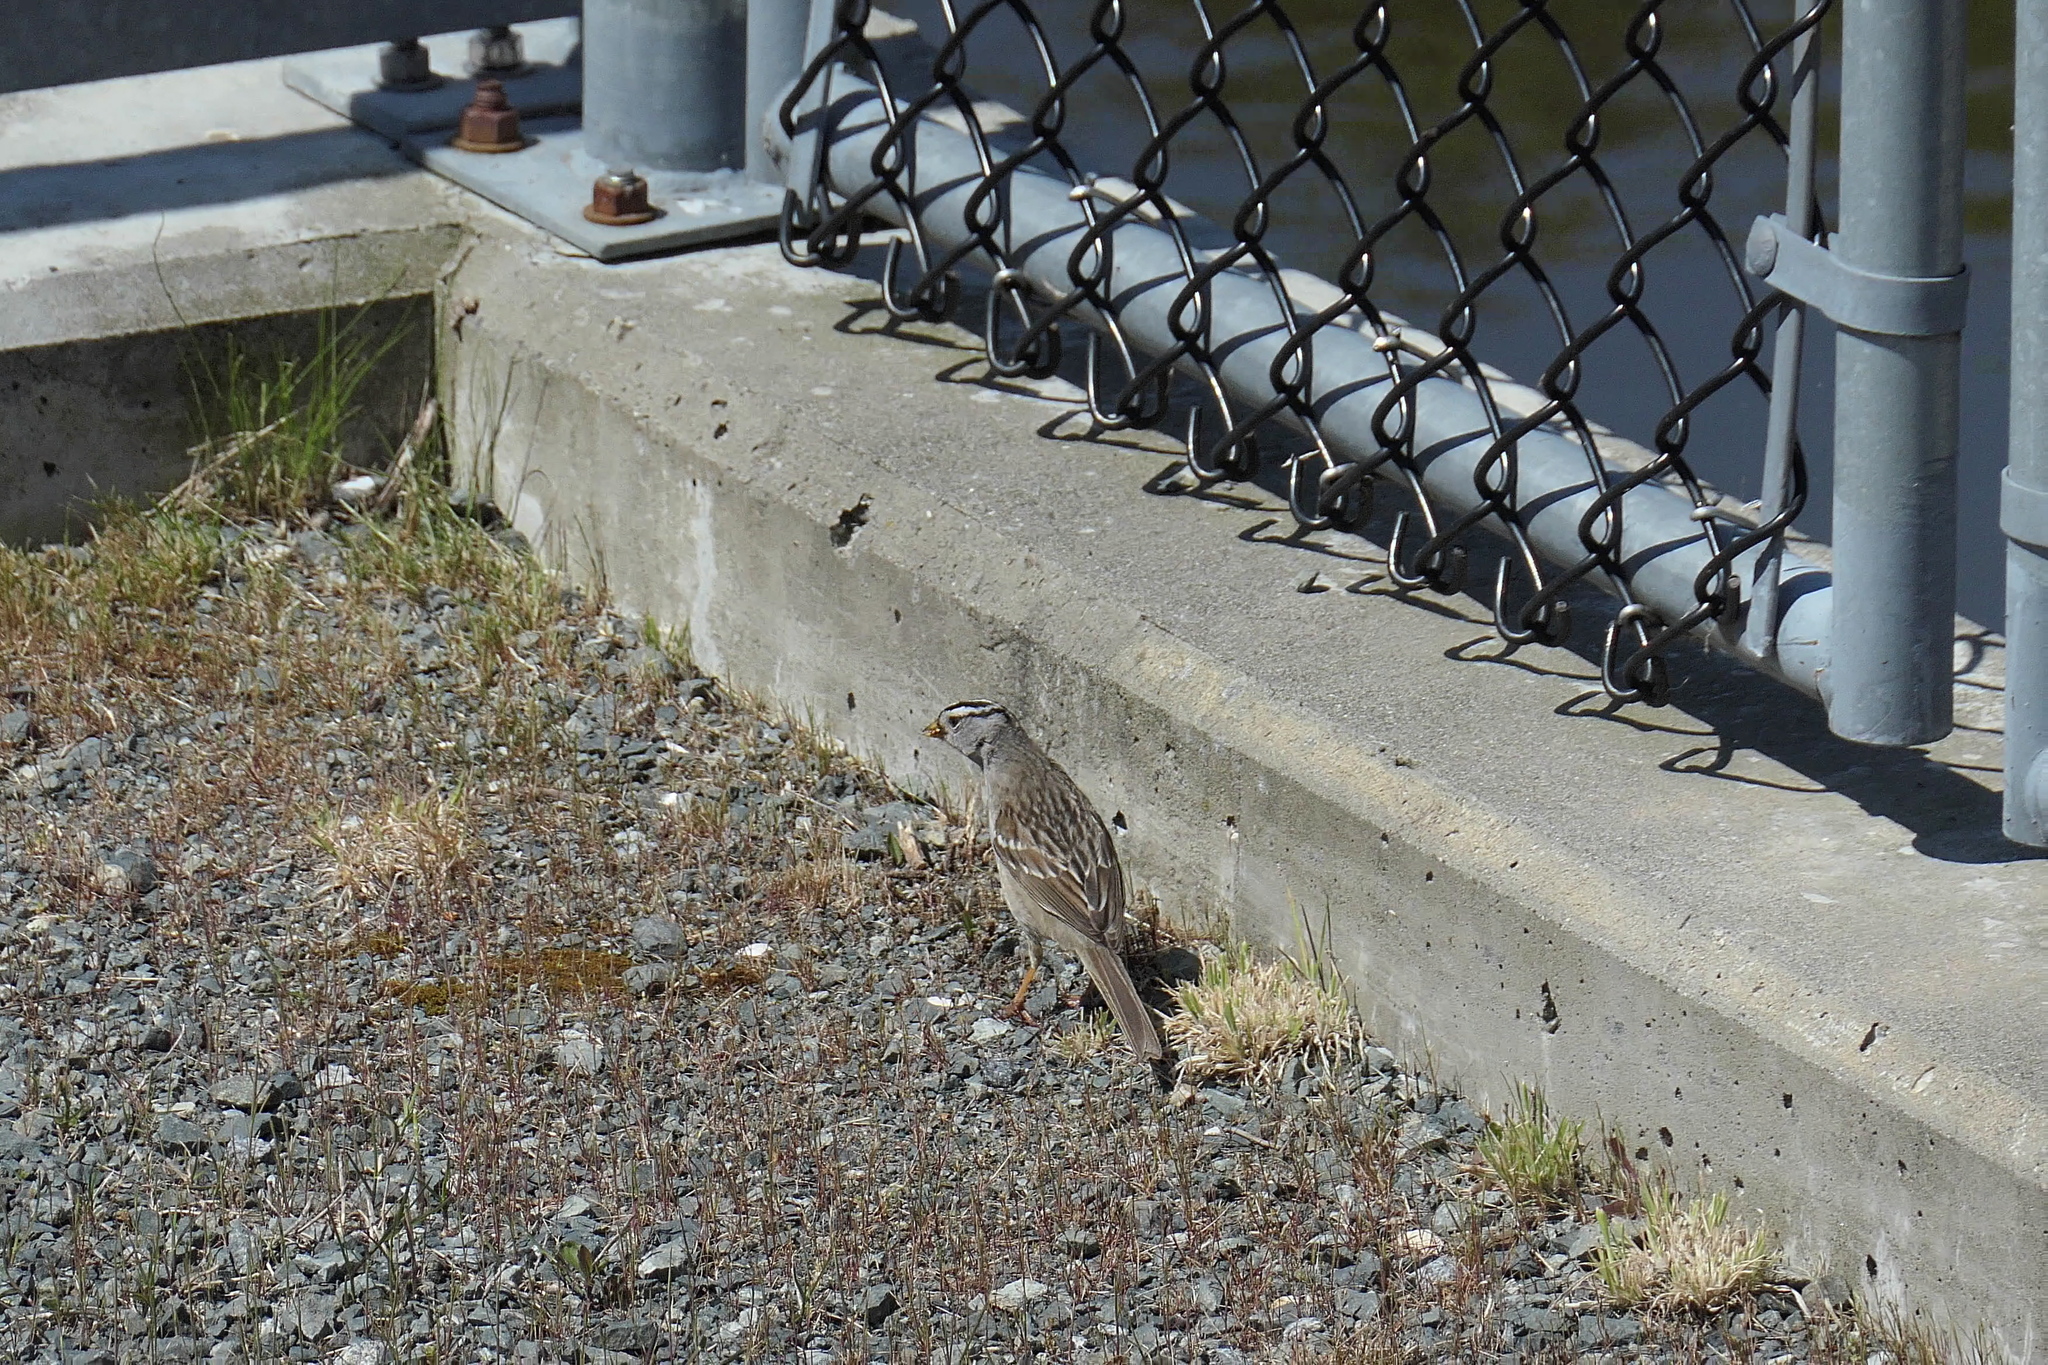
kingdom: Animalia
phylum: Chordata
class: Aves
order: Passeriformes
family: Passerellidae
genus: Zonotrichia
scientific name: Zonotrichia leucophrys
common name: White-crowned sparrow
